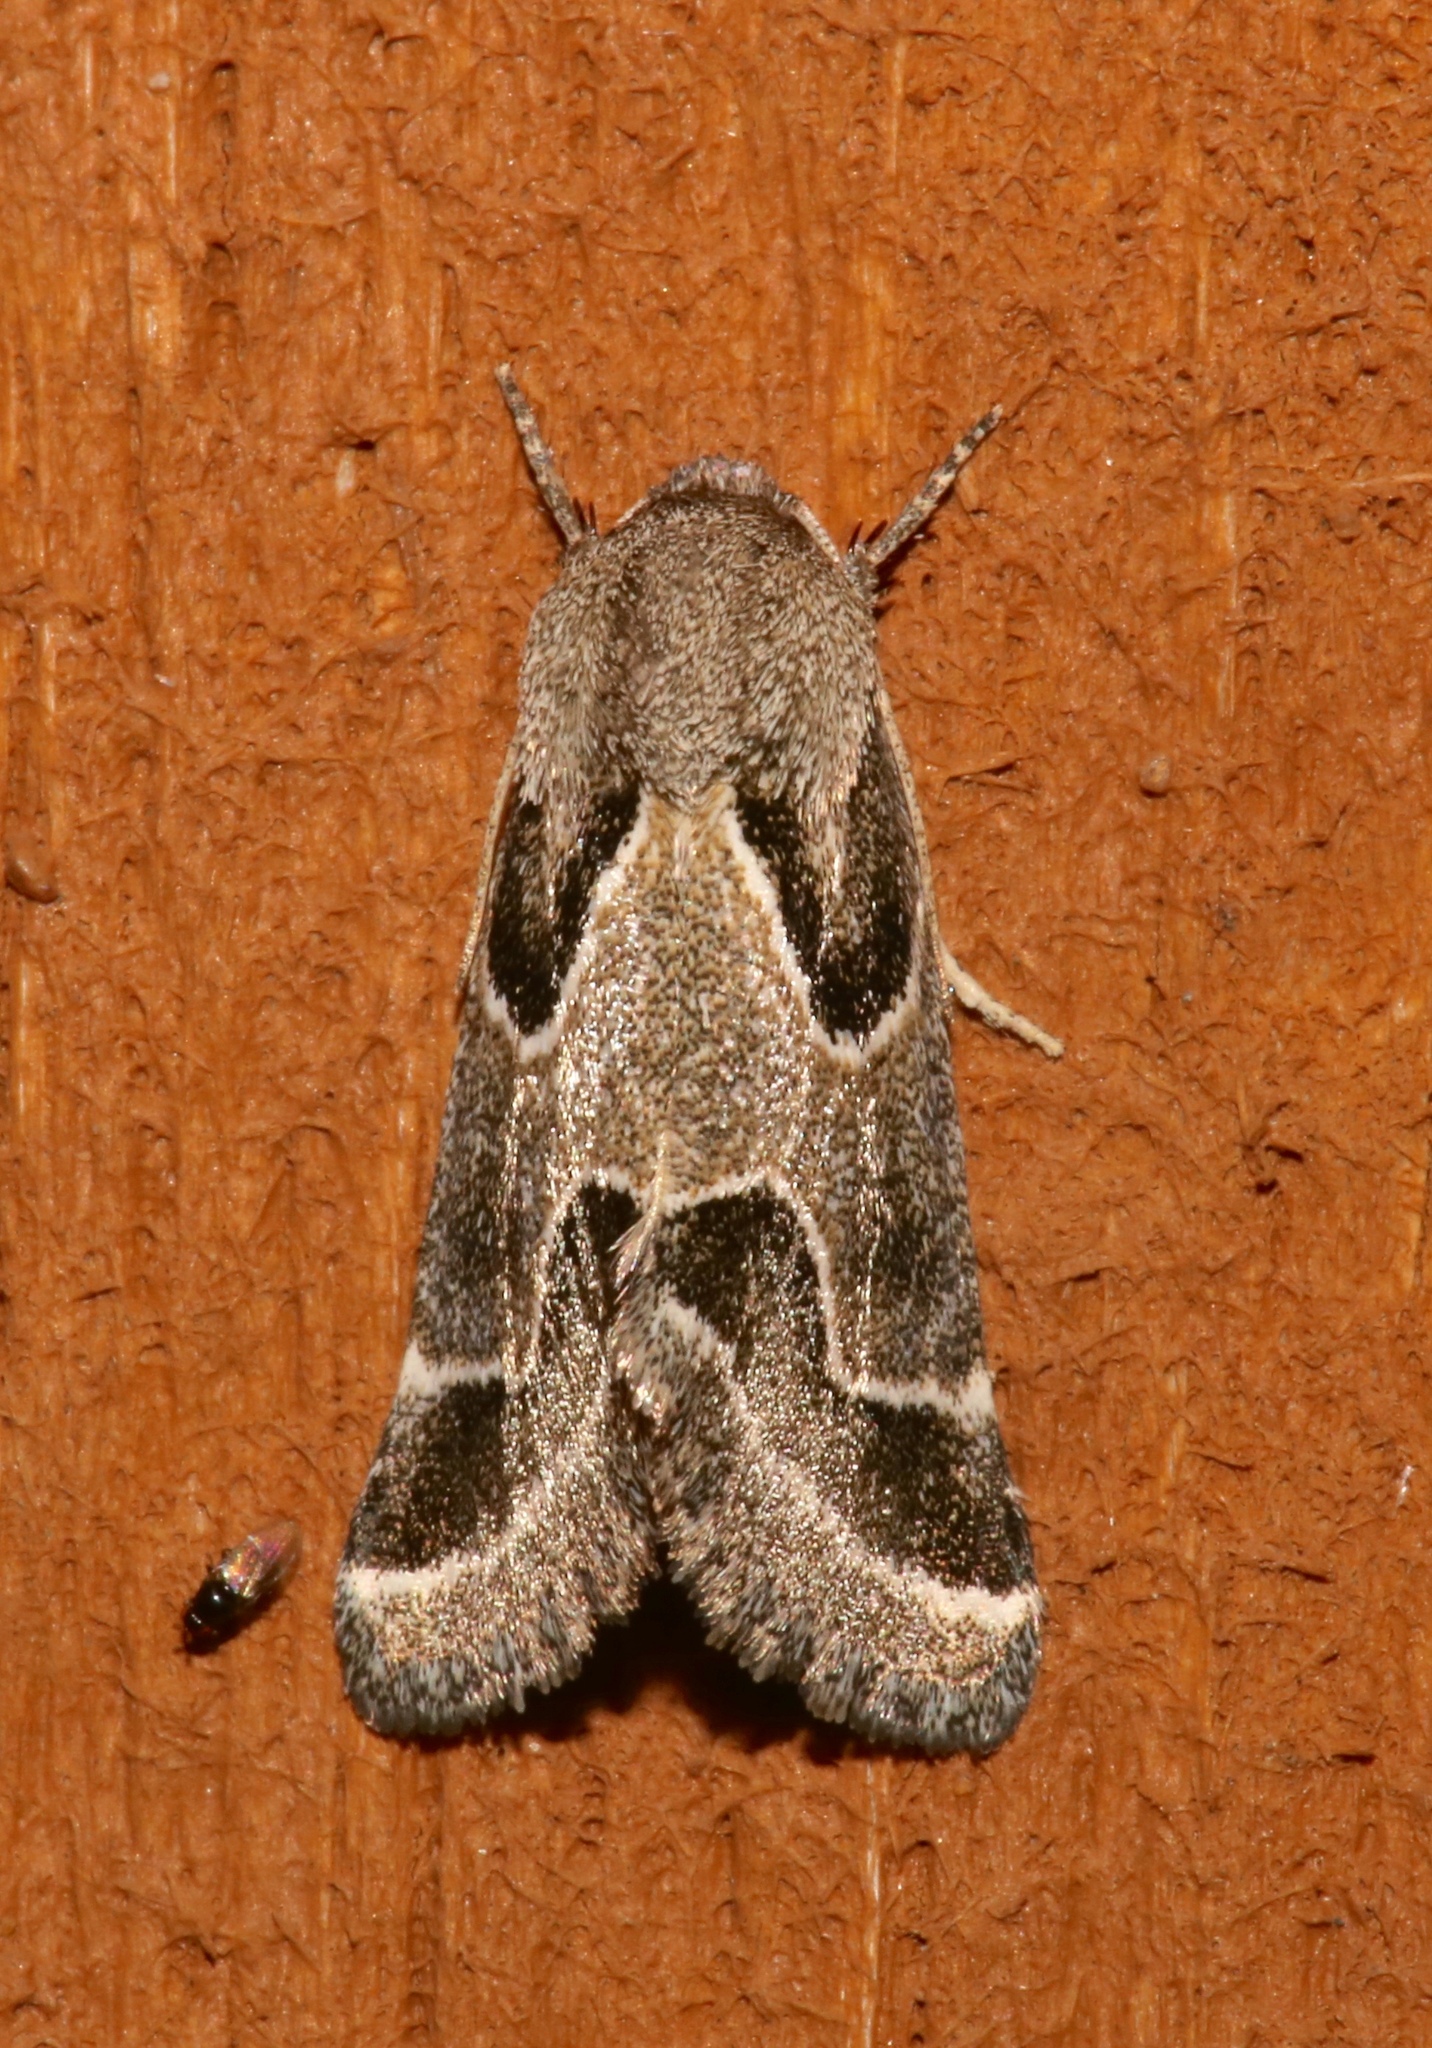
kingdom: Animalia
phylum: Arthropoda
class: Insecta
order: Lepidoptera
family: Noctuidae
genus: Schinia
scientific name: Schinia rivulosa
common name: Scarce meal-moth
